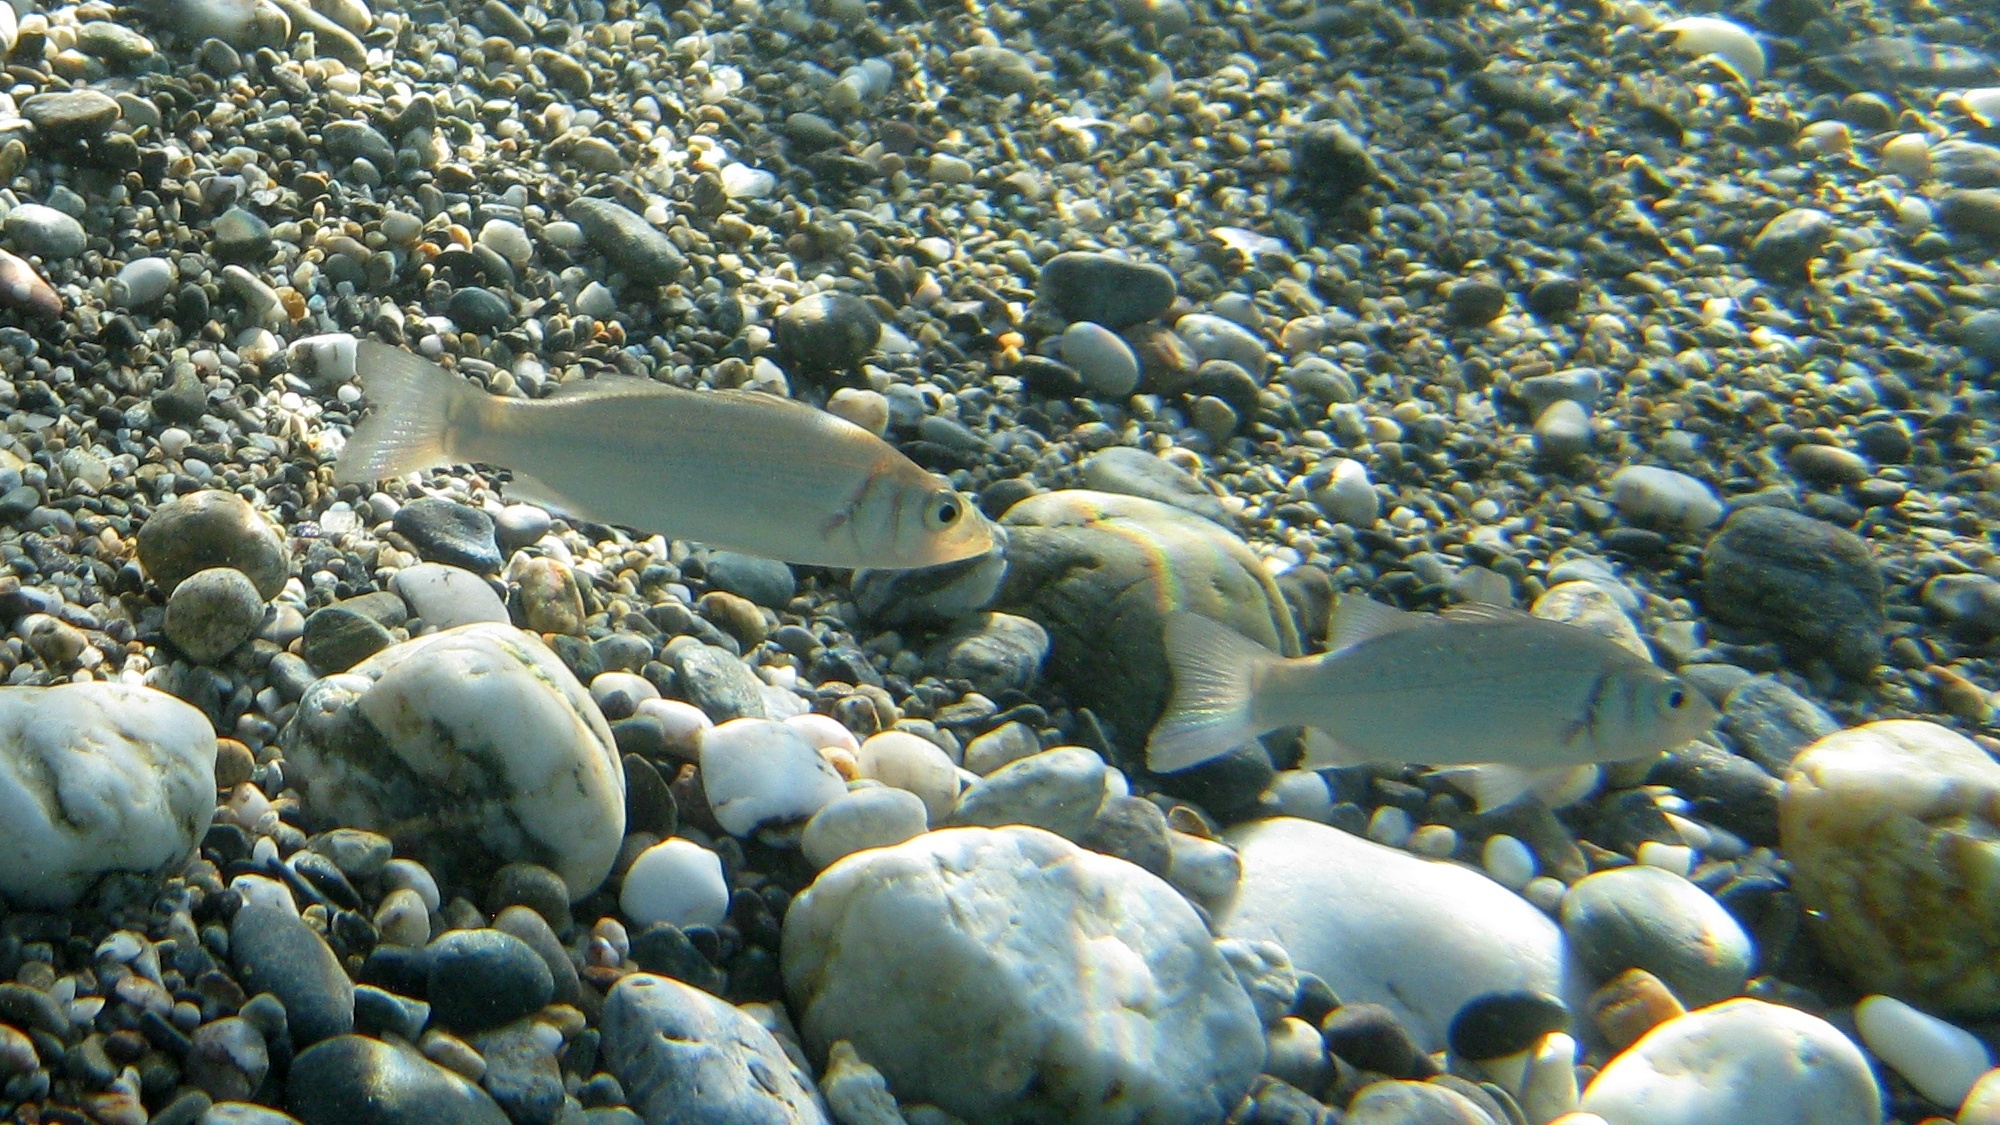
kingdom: Animalia
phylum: Chordata
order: Perciformes
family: Moronidae
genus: Dicentrarchus
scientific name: Dicentrarchus labrax
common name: European seabass
